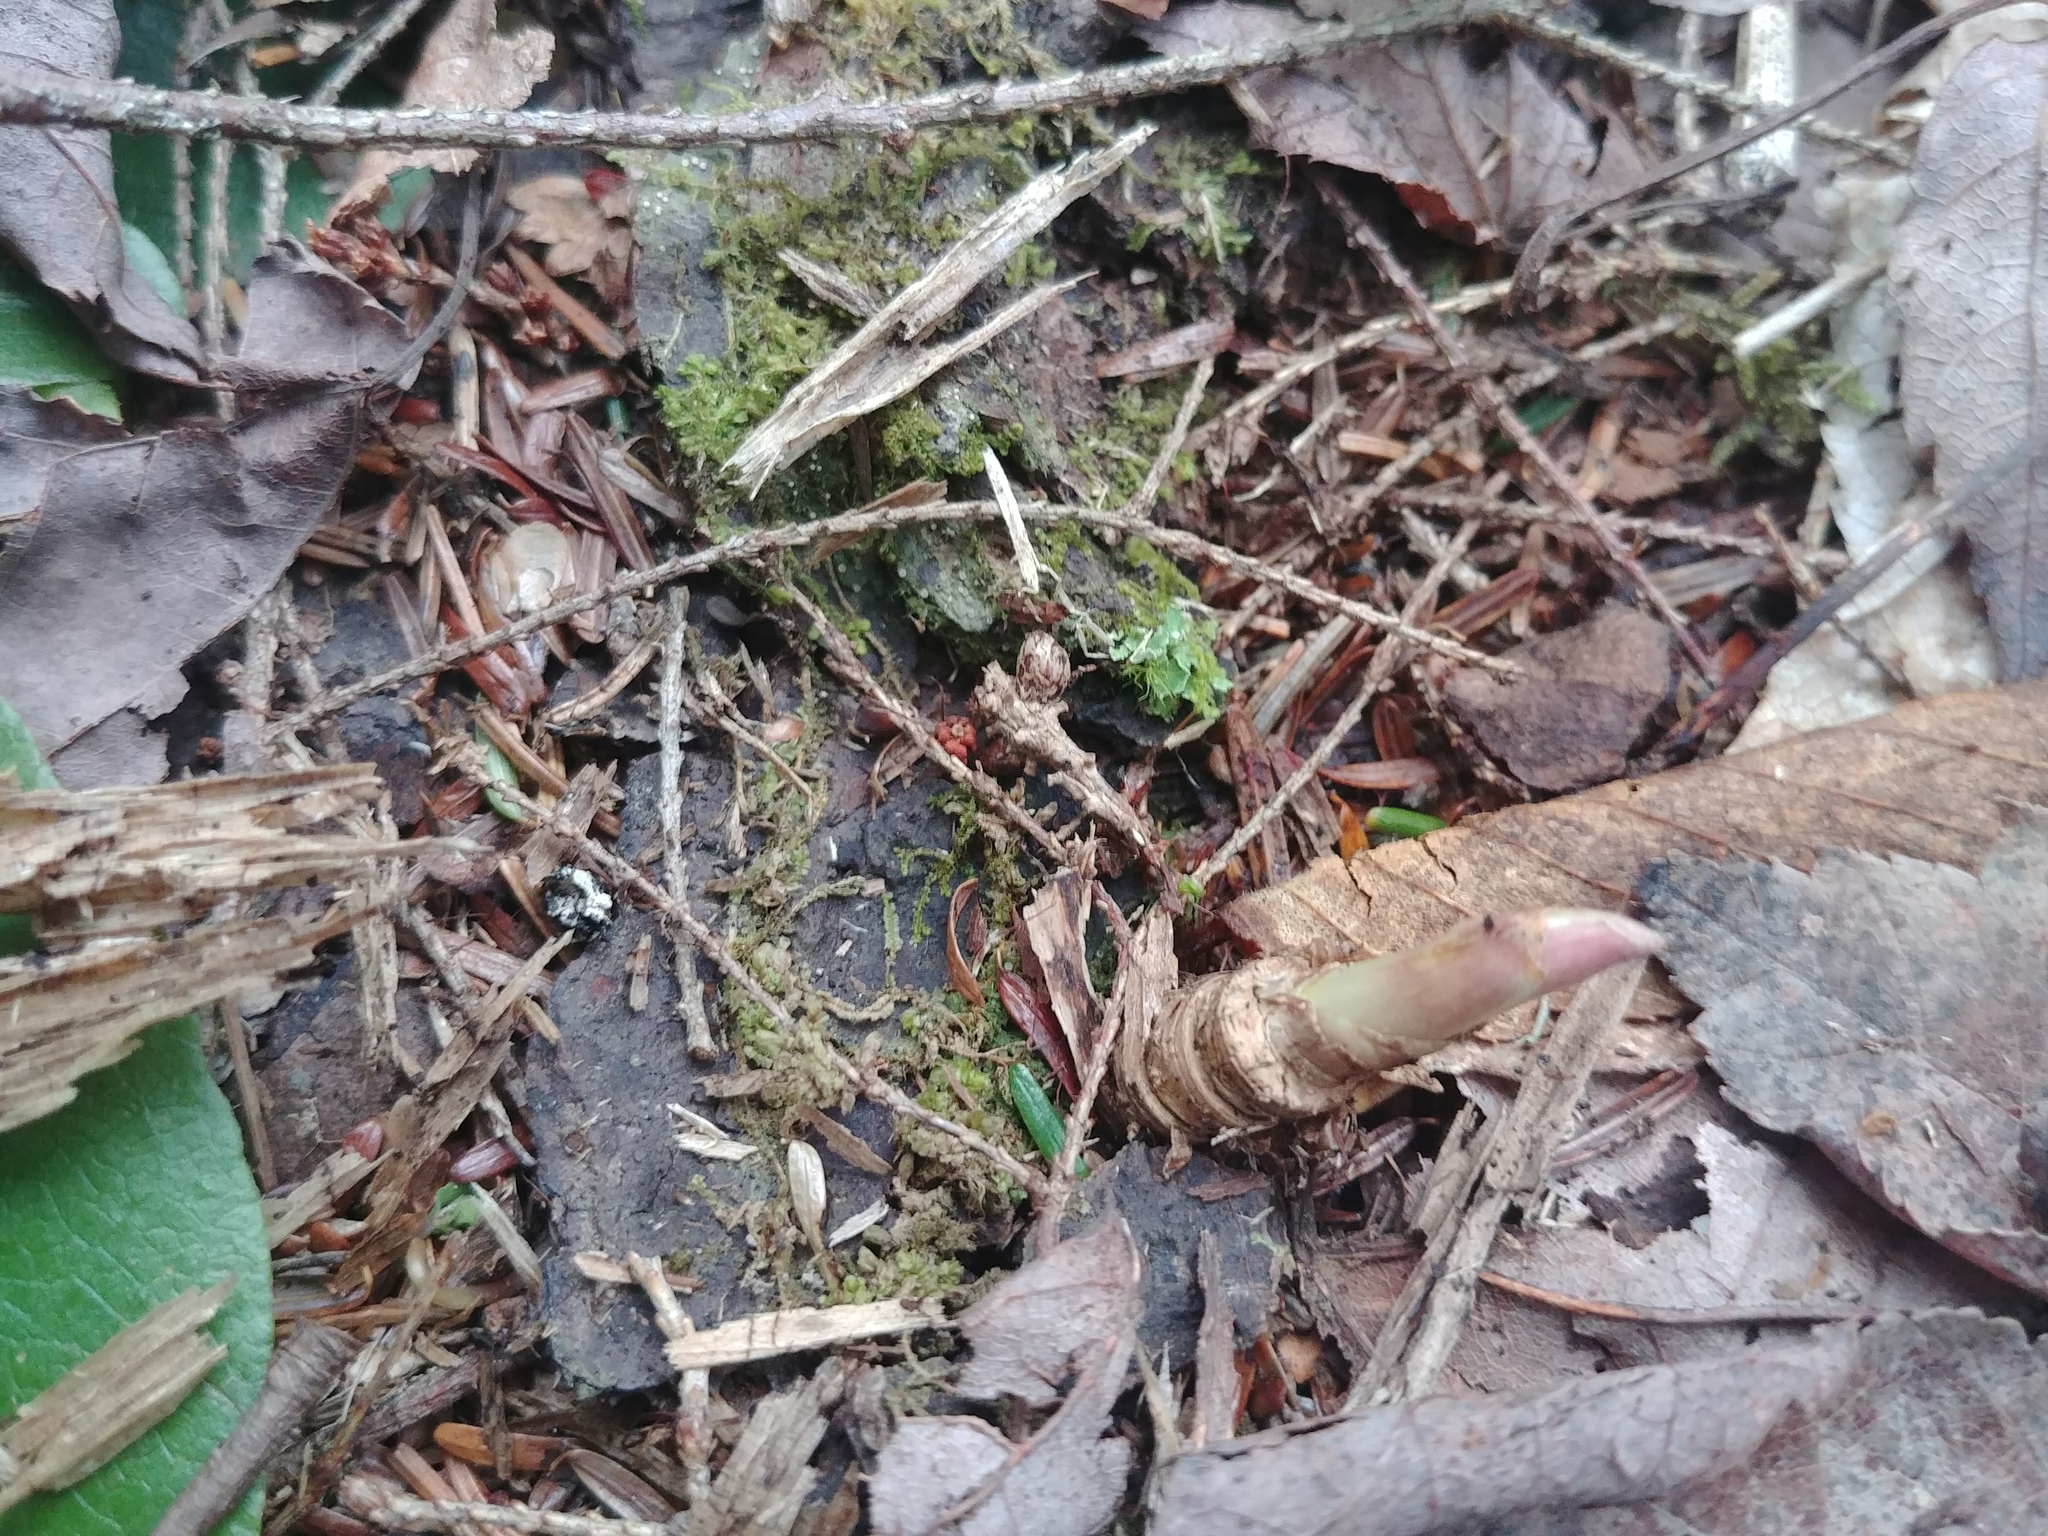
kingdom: Plantae
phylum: Tracheophyta
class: Magnoliopsida
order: Apiales
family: Araliaceae
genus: Aralia
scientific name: Aralia nudicaulis
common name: Wild sarsaparilla
